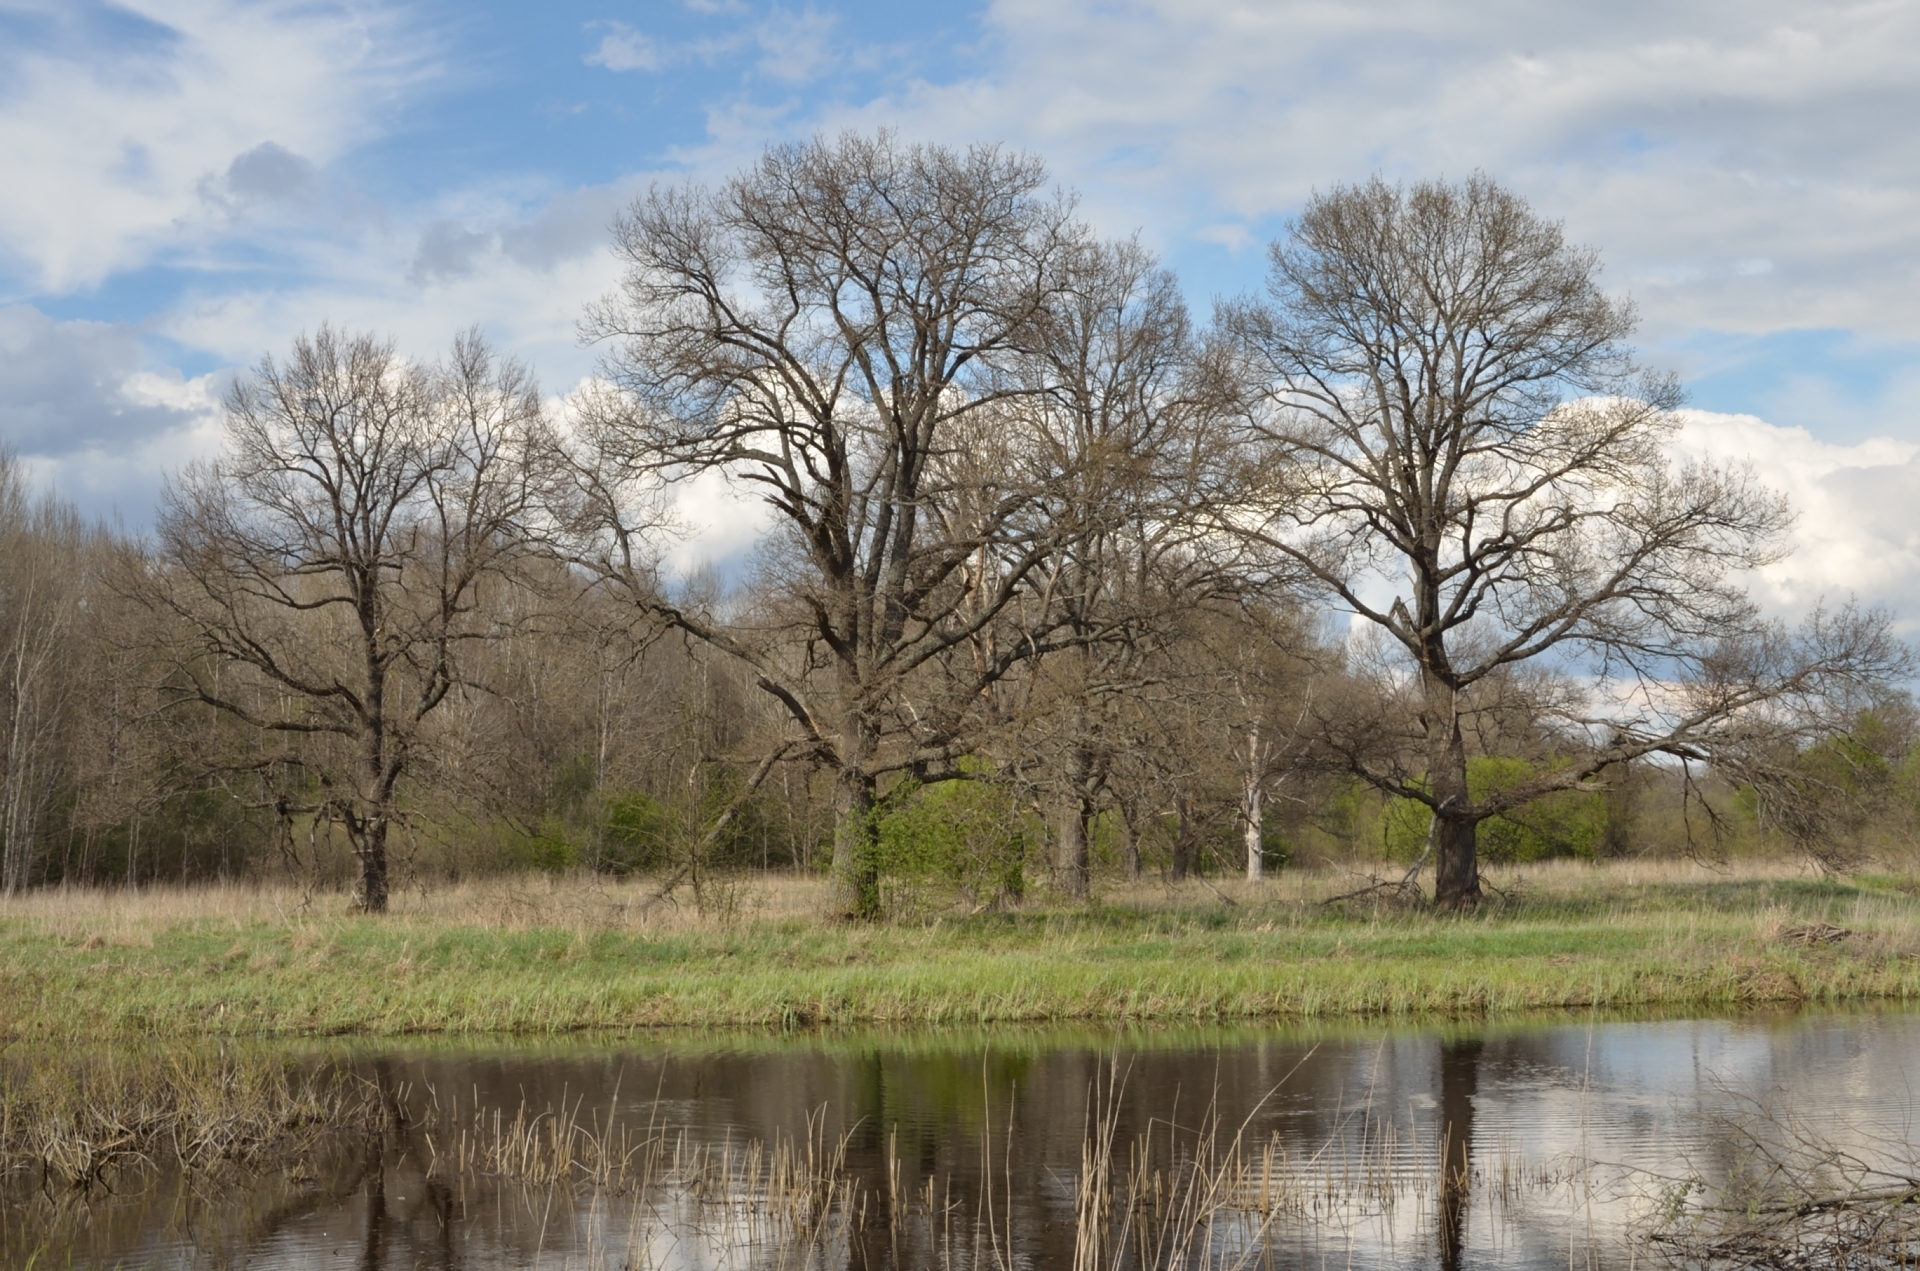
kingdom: Plantae
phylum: Tracheophyta
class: Magnoliopsida
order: Fagales
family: Fagaceae
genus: Quercus
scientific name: Quercus robur
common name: Pedunculate oak
